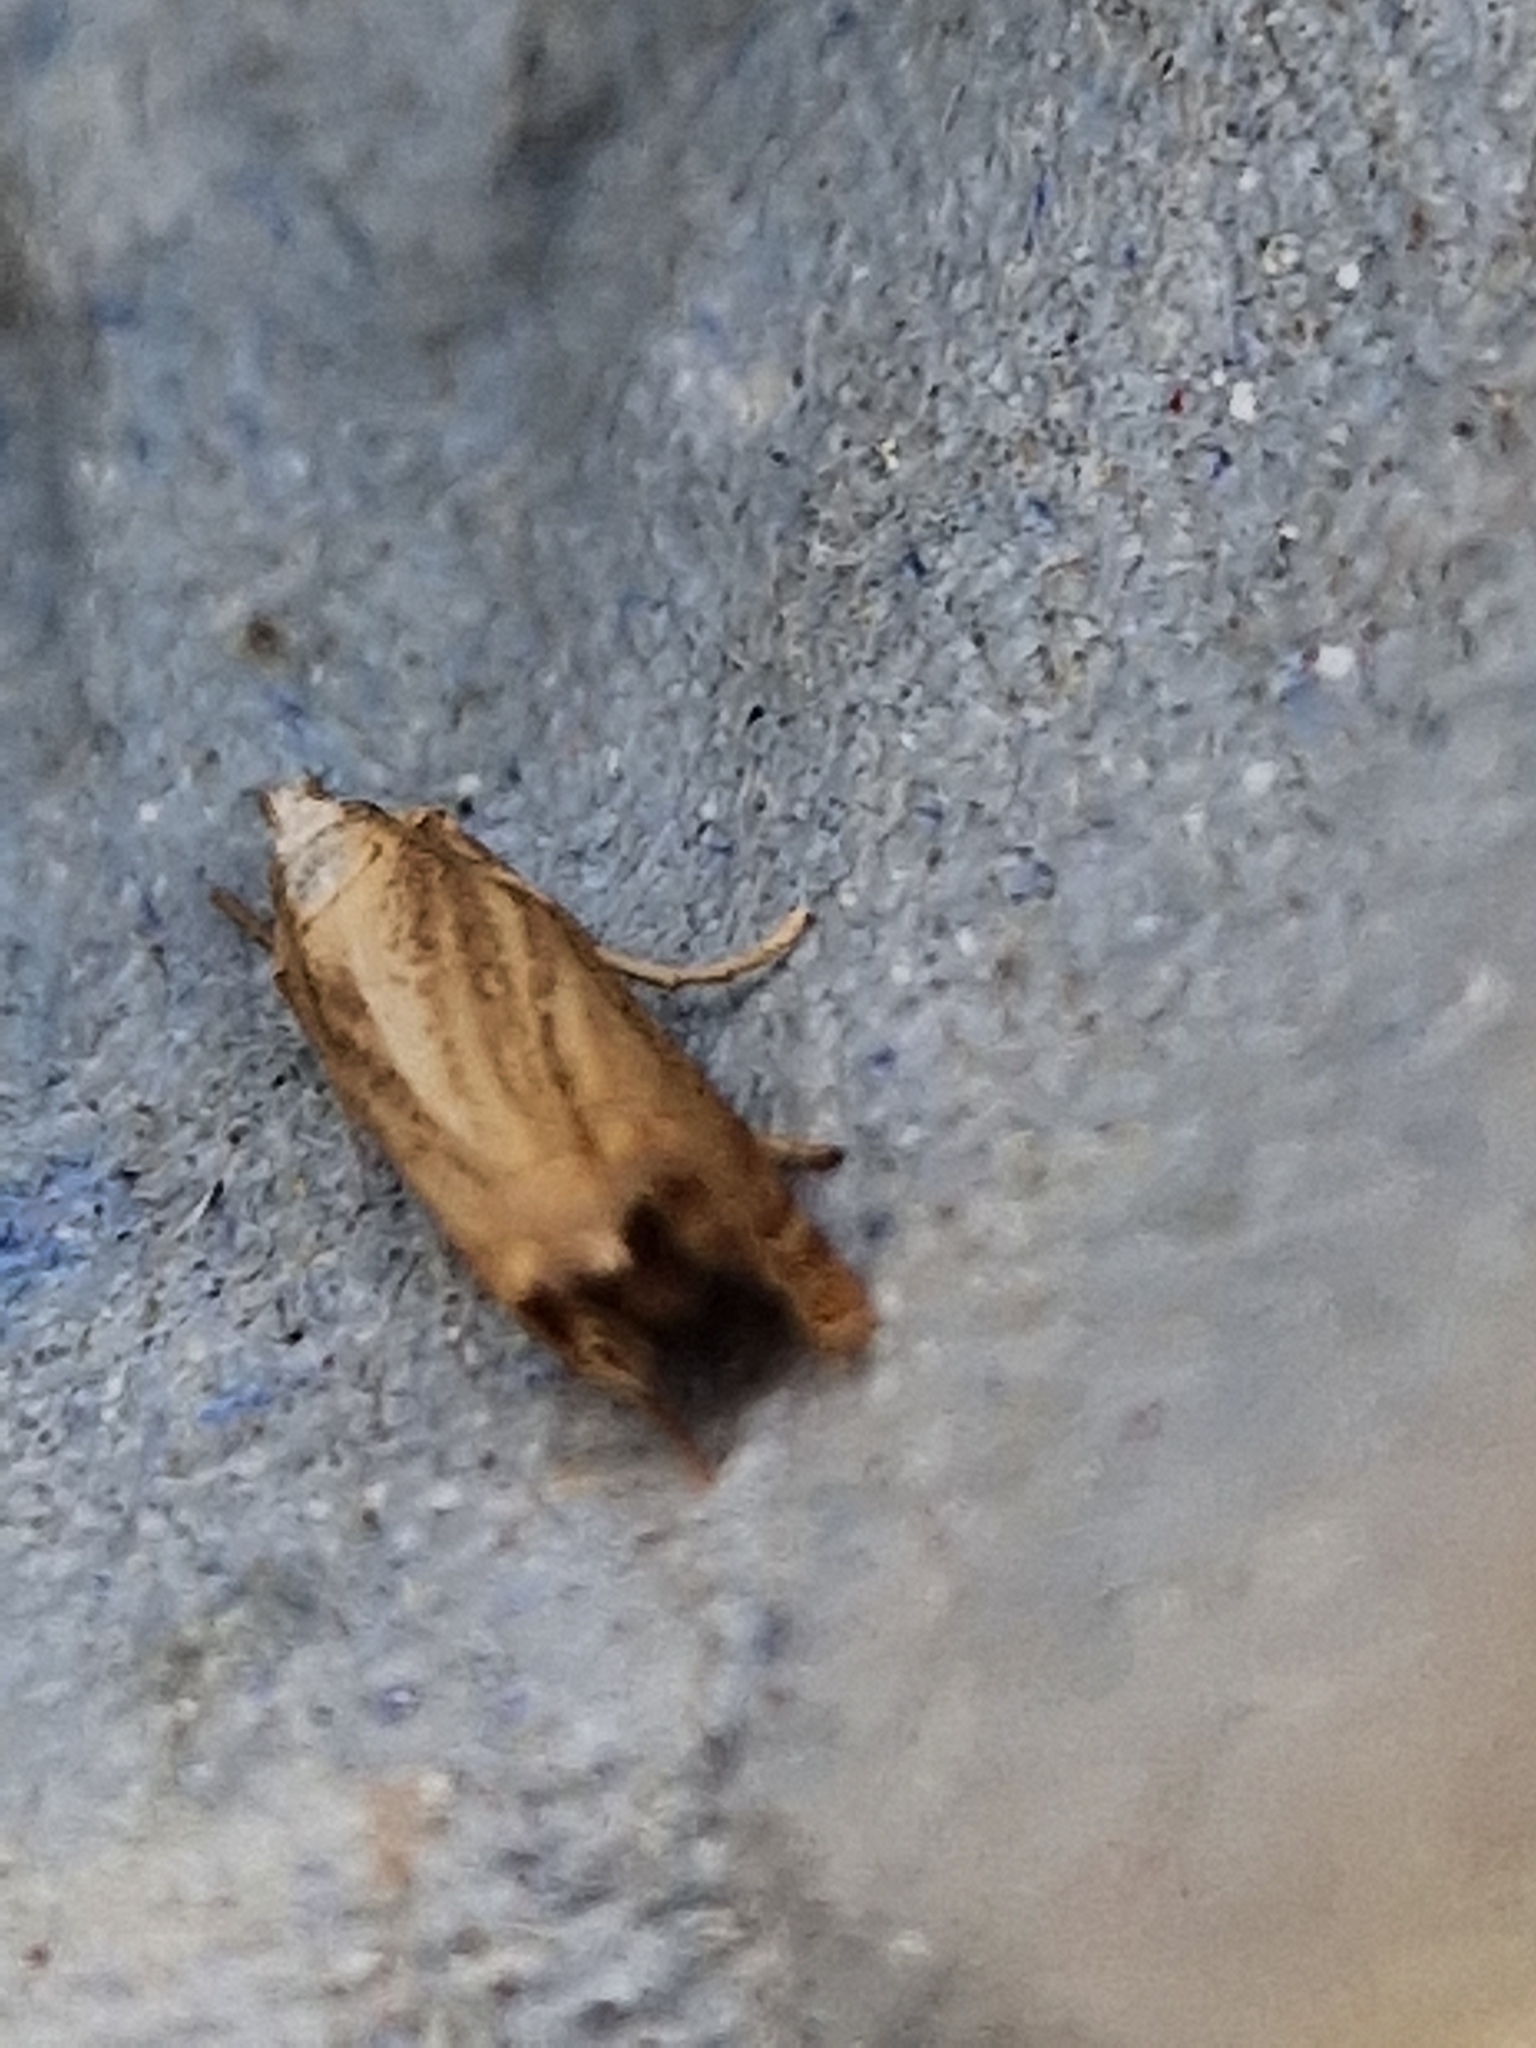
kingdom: Animalia
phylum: Arthropoda
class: Insecta
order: Lepidoptera
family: Crambidae
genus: Chrysoteuchia
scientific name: Chrysoteuchia culmella
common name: Garden grass-veneer
